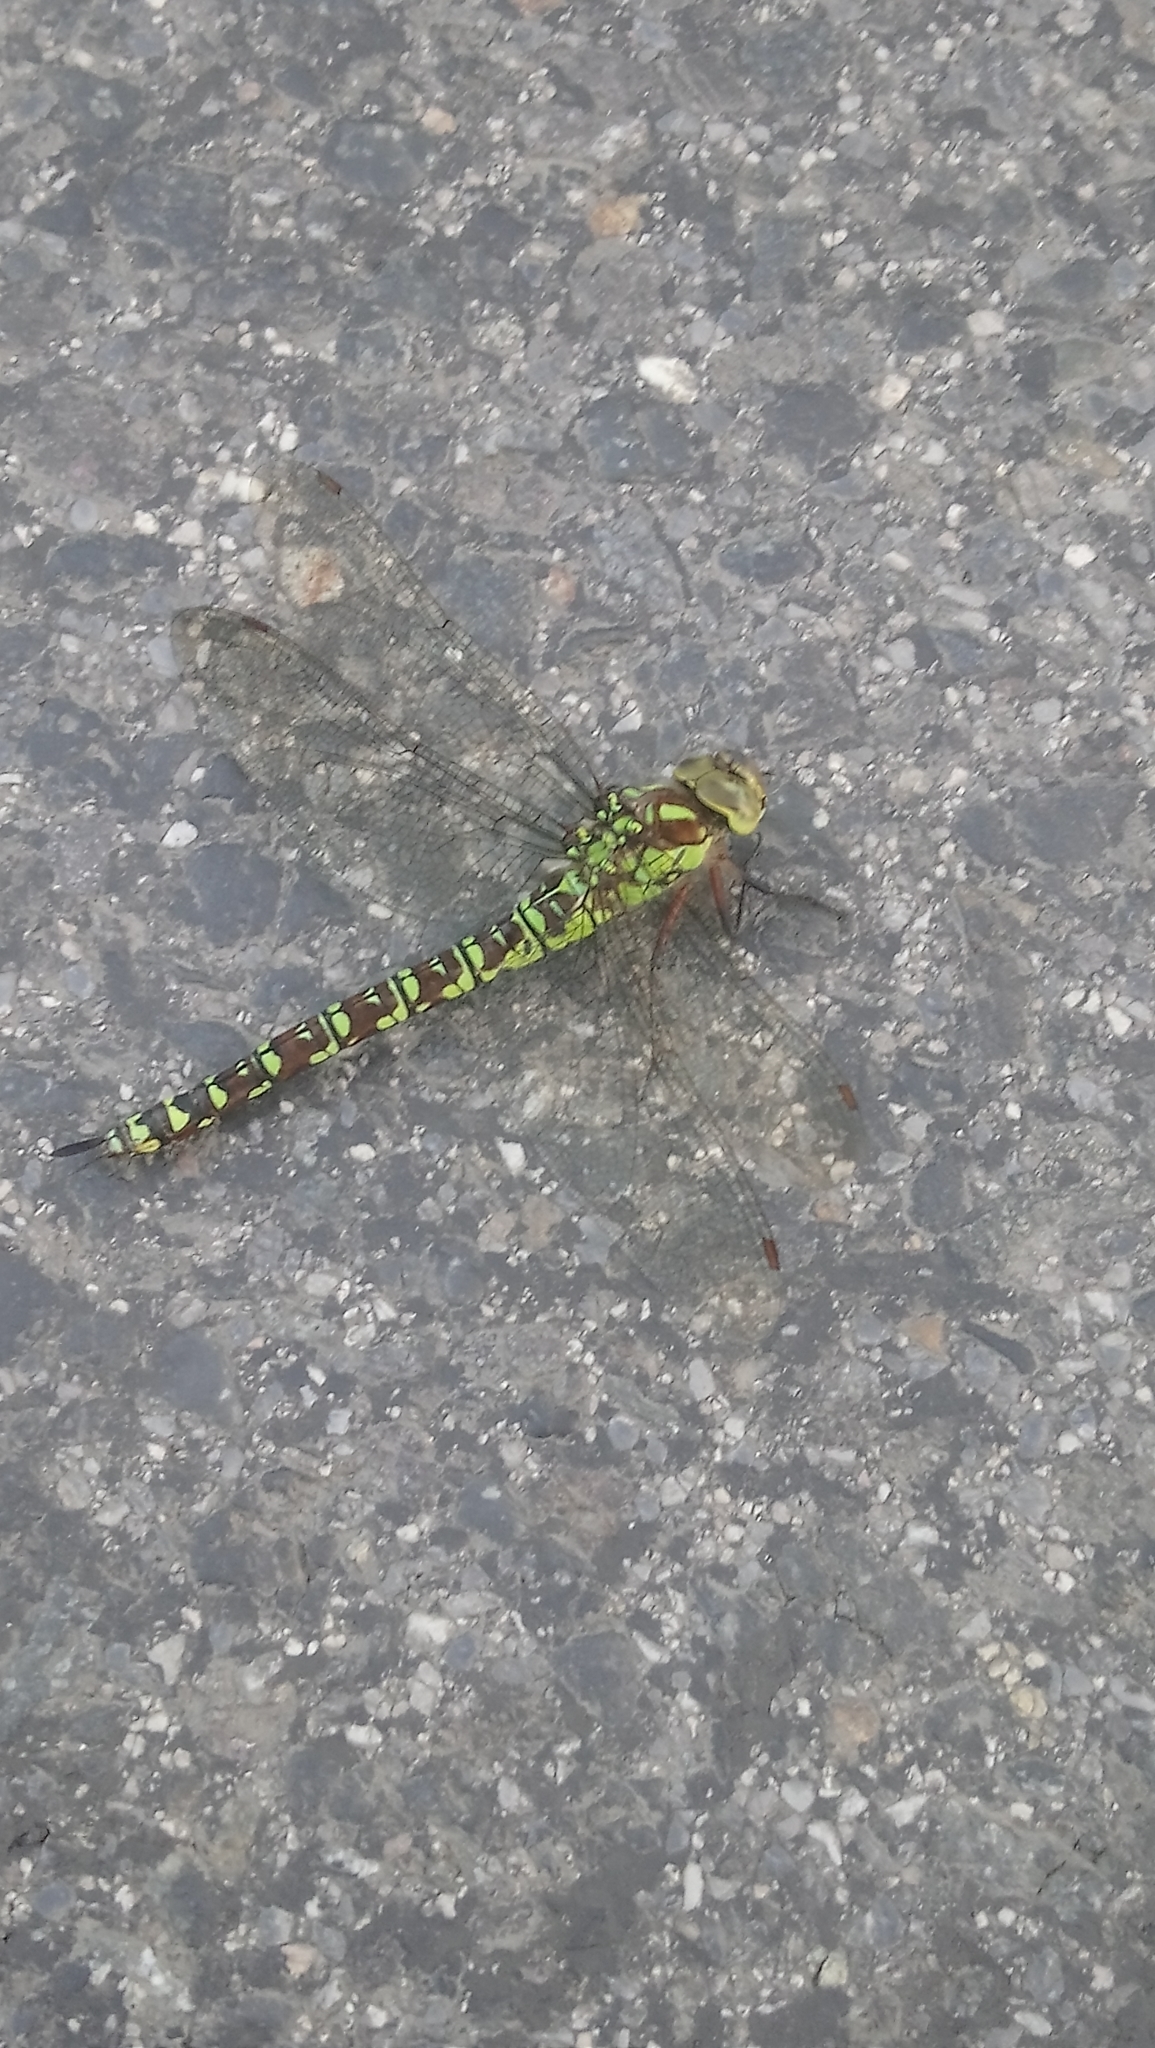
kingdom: Animalia
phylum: Arthropoda
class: Insecta
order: Odonata
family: Aeshnidae
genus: Aeshna
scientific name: Aeshna cyanea
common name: Southern hawker
